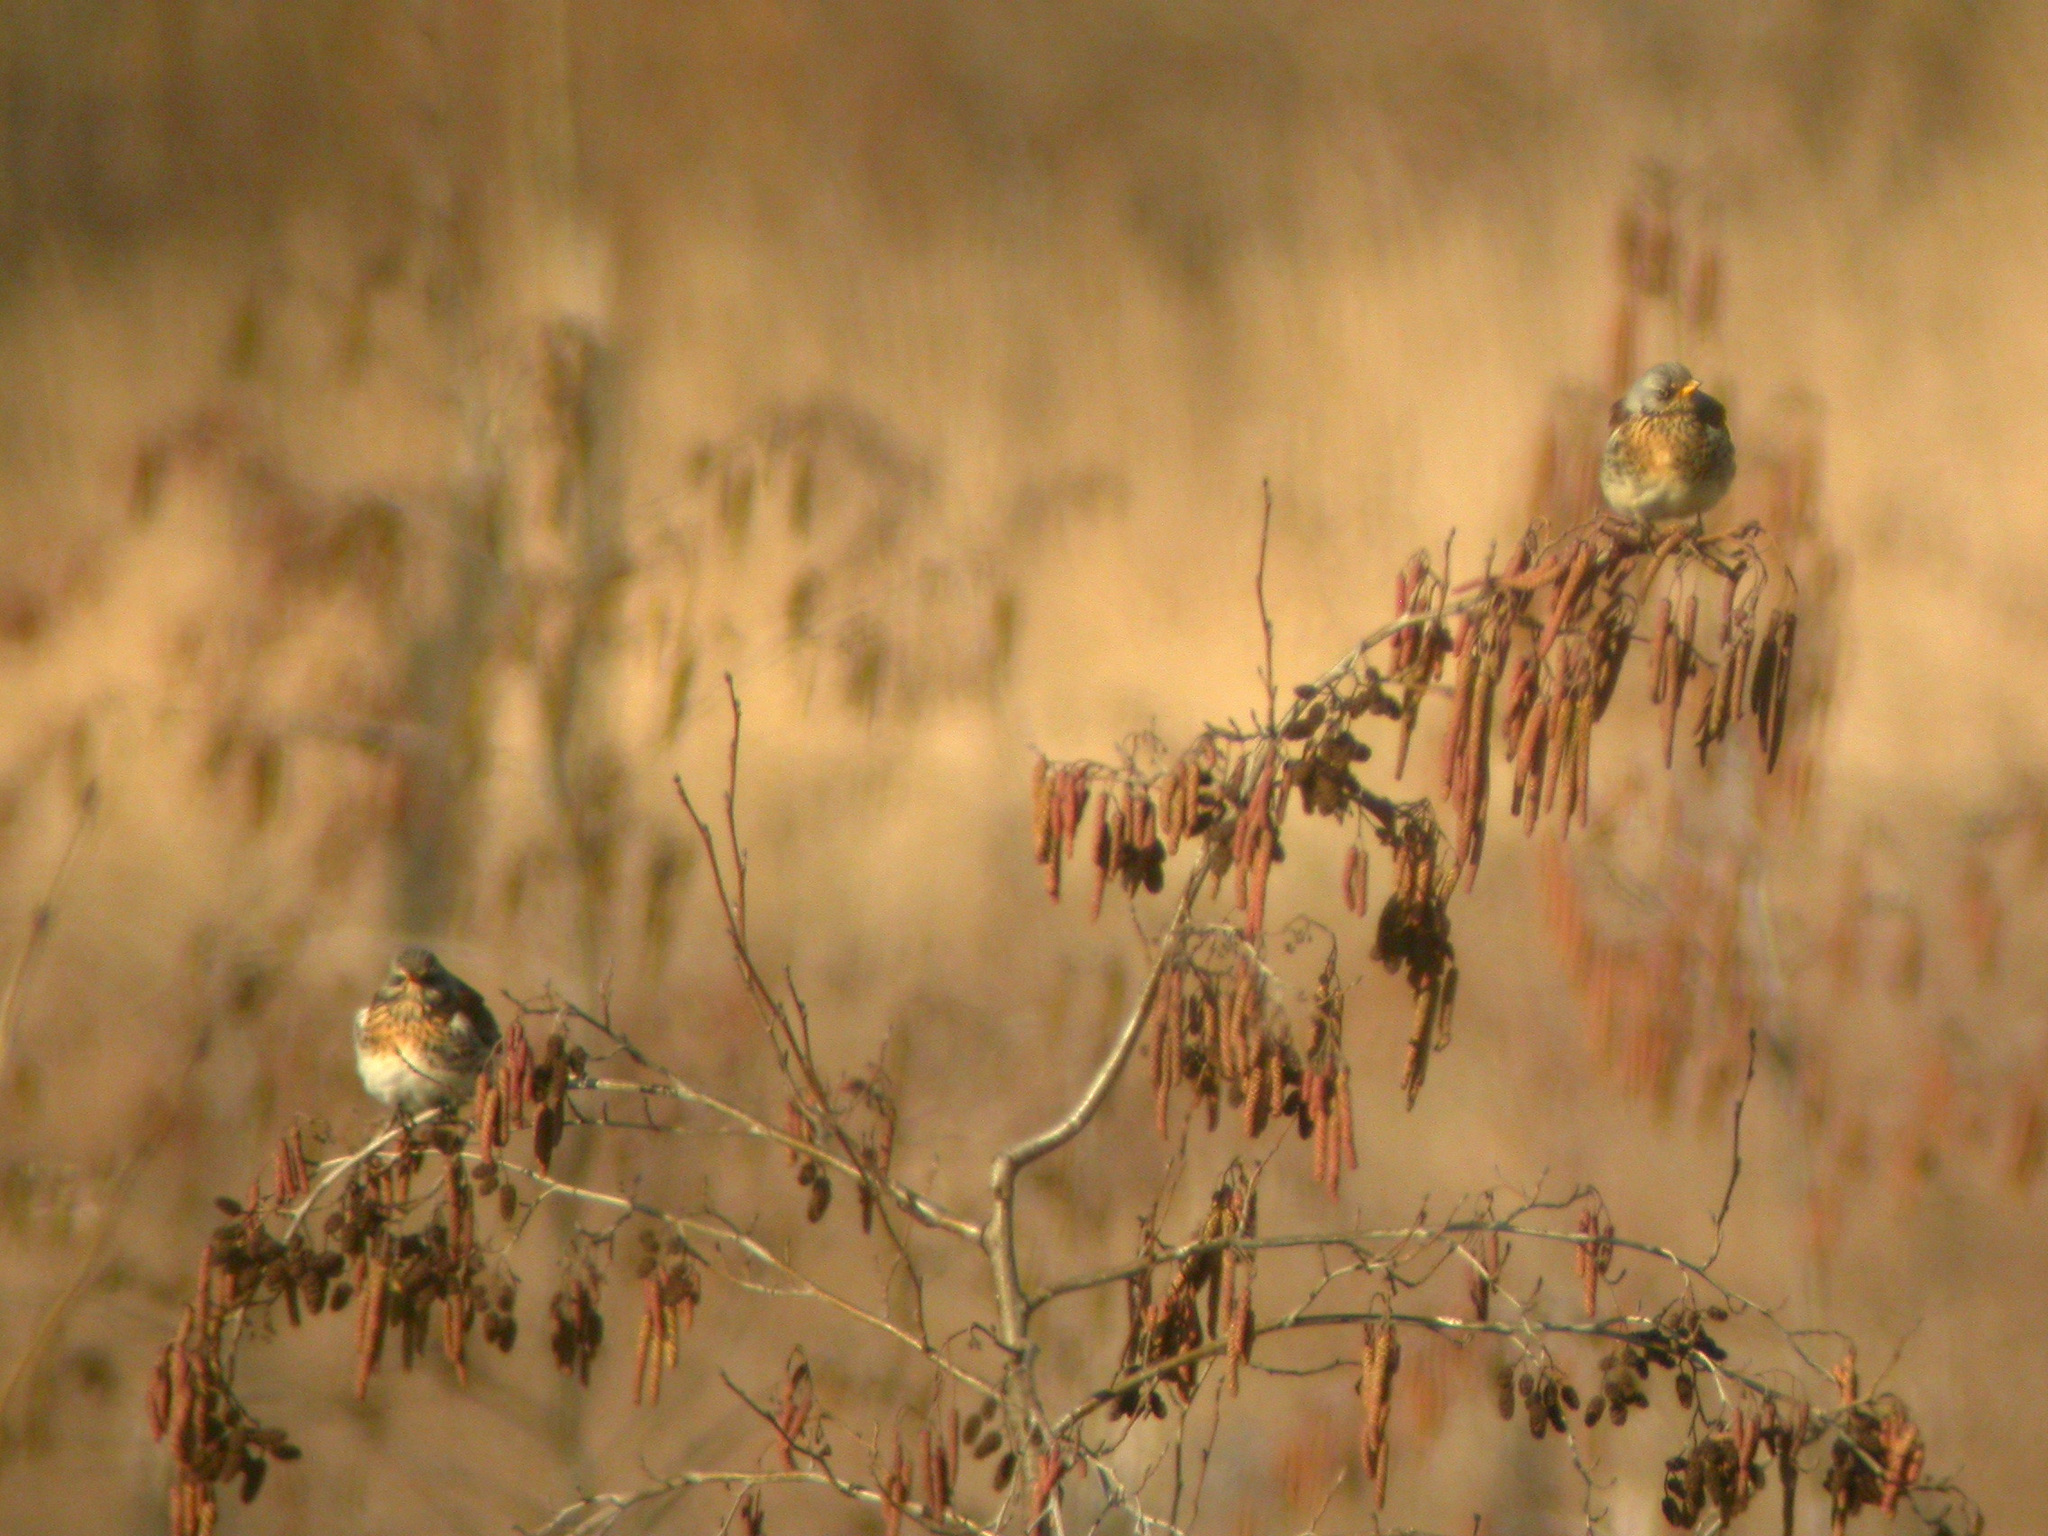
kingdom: Animalia
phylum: Chordata
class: Aves
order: Passeriformes
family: Turdidae
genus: Turdus
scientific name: Turdus pilaris
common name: Fieldfare
